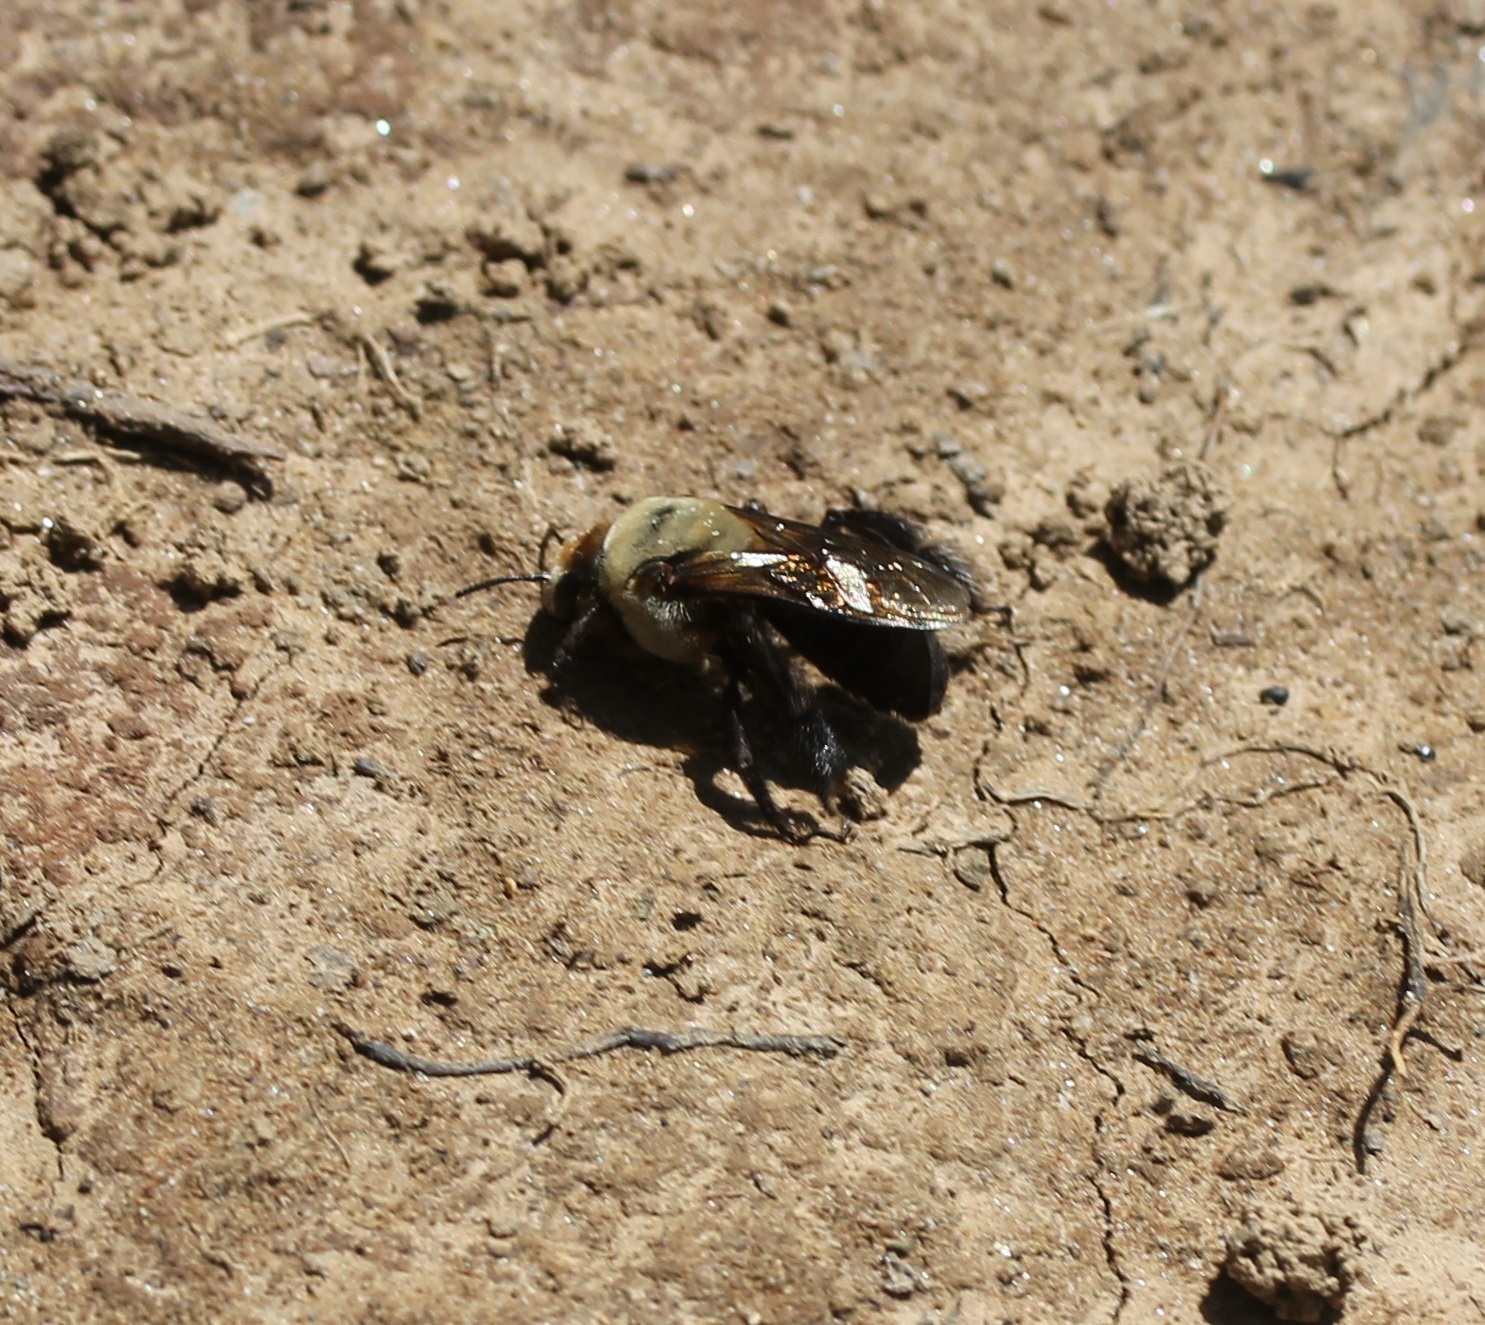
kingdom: Animalia
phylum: Arthropoda
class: Insecta
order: Hymenoptera
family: Apidae
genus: Ptilothrix
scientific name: Ptilothrix bombiformis
